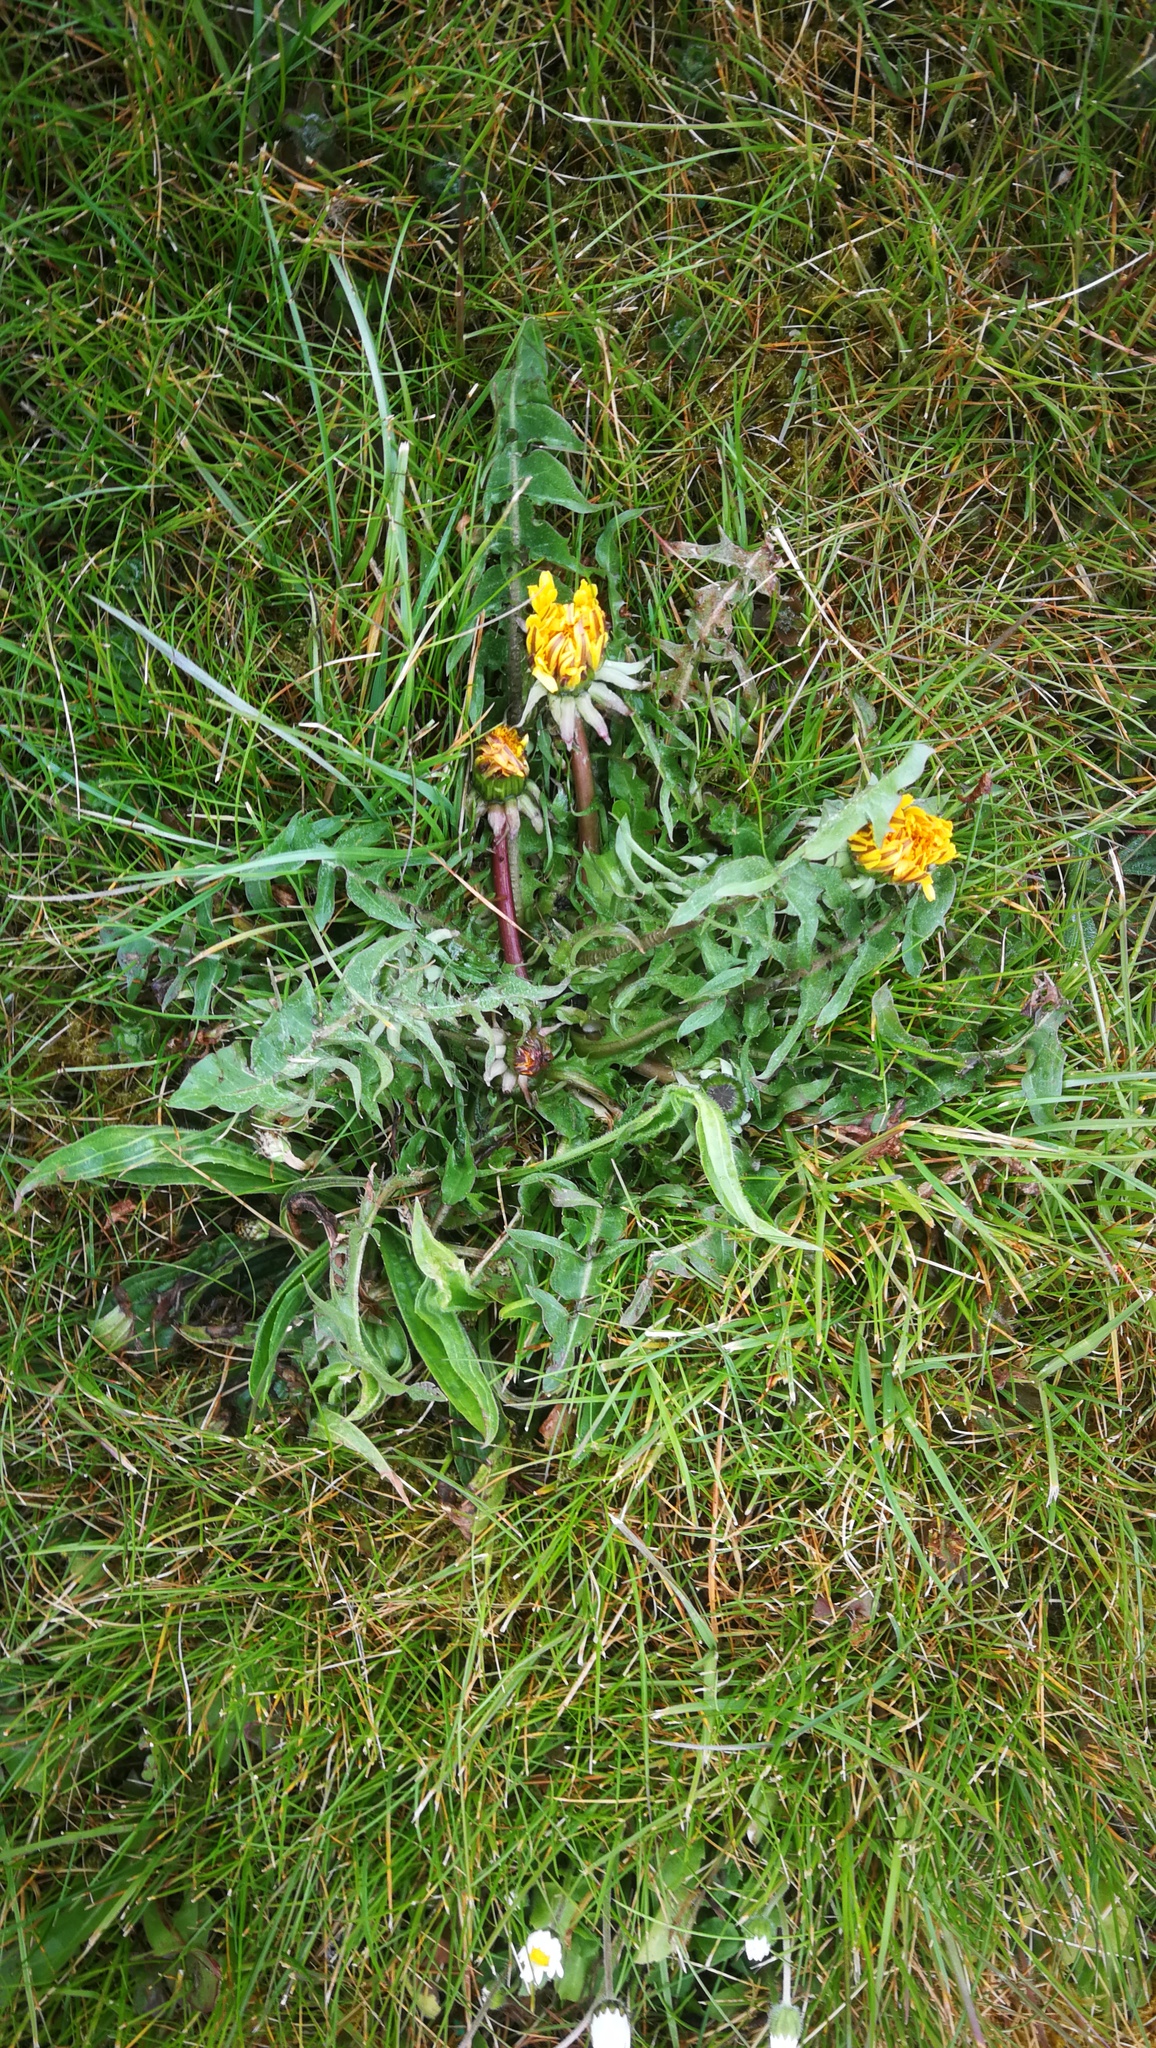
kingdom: Plantae
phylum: Tracheophyta
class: Magnoliopsida
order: Asterales
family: Asteraceae
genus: Taraxacum
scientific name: Taraxacum officinale
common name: Common dandelion
